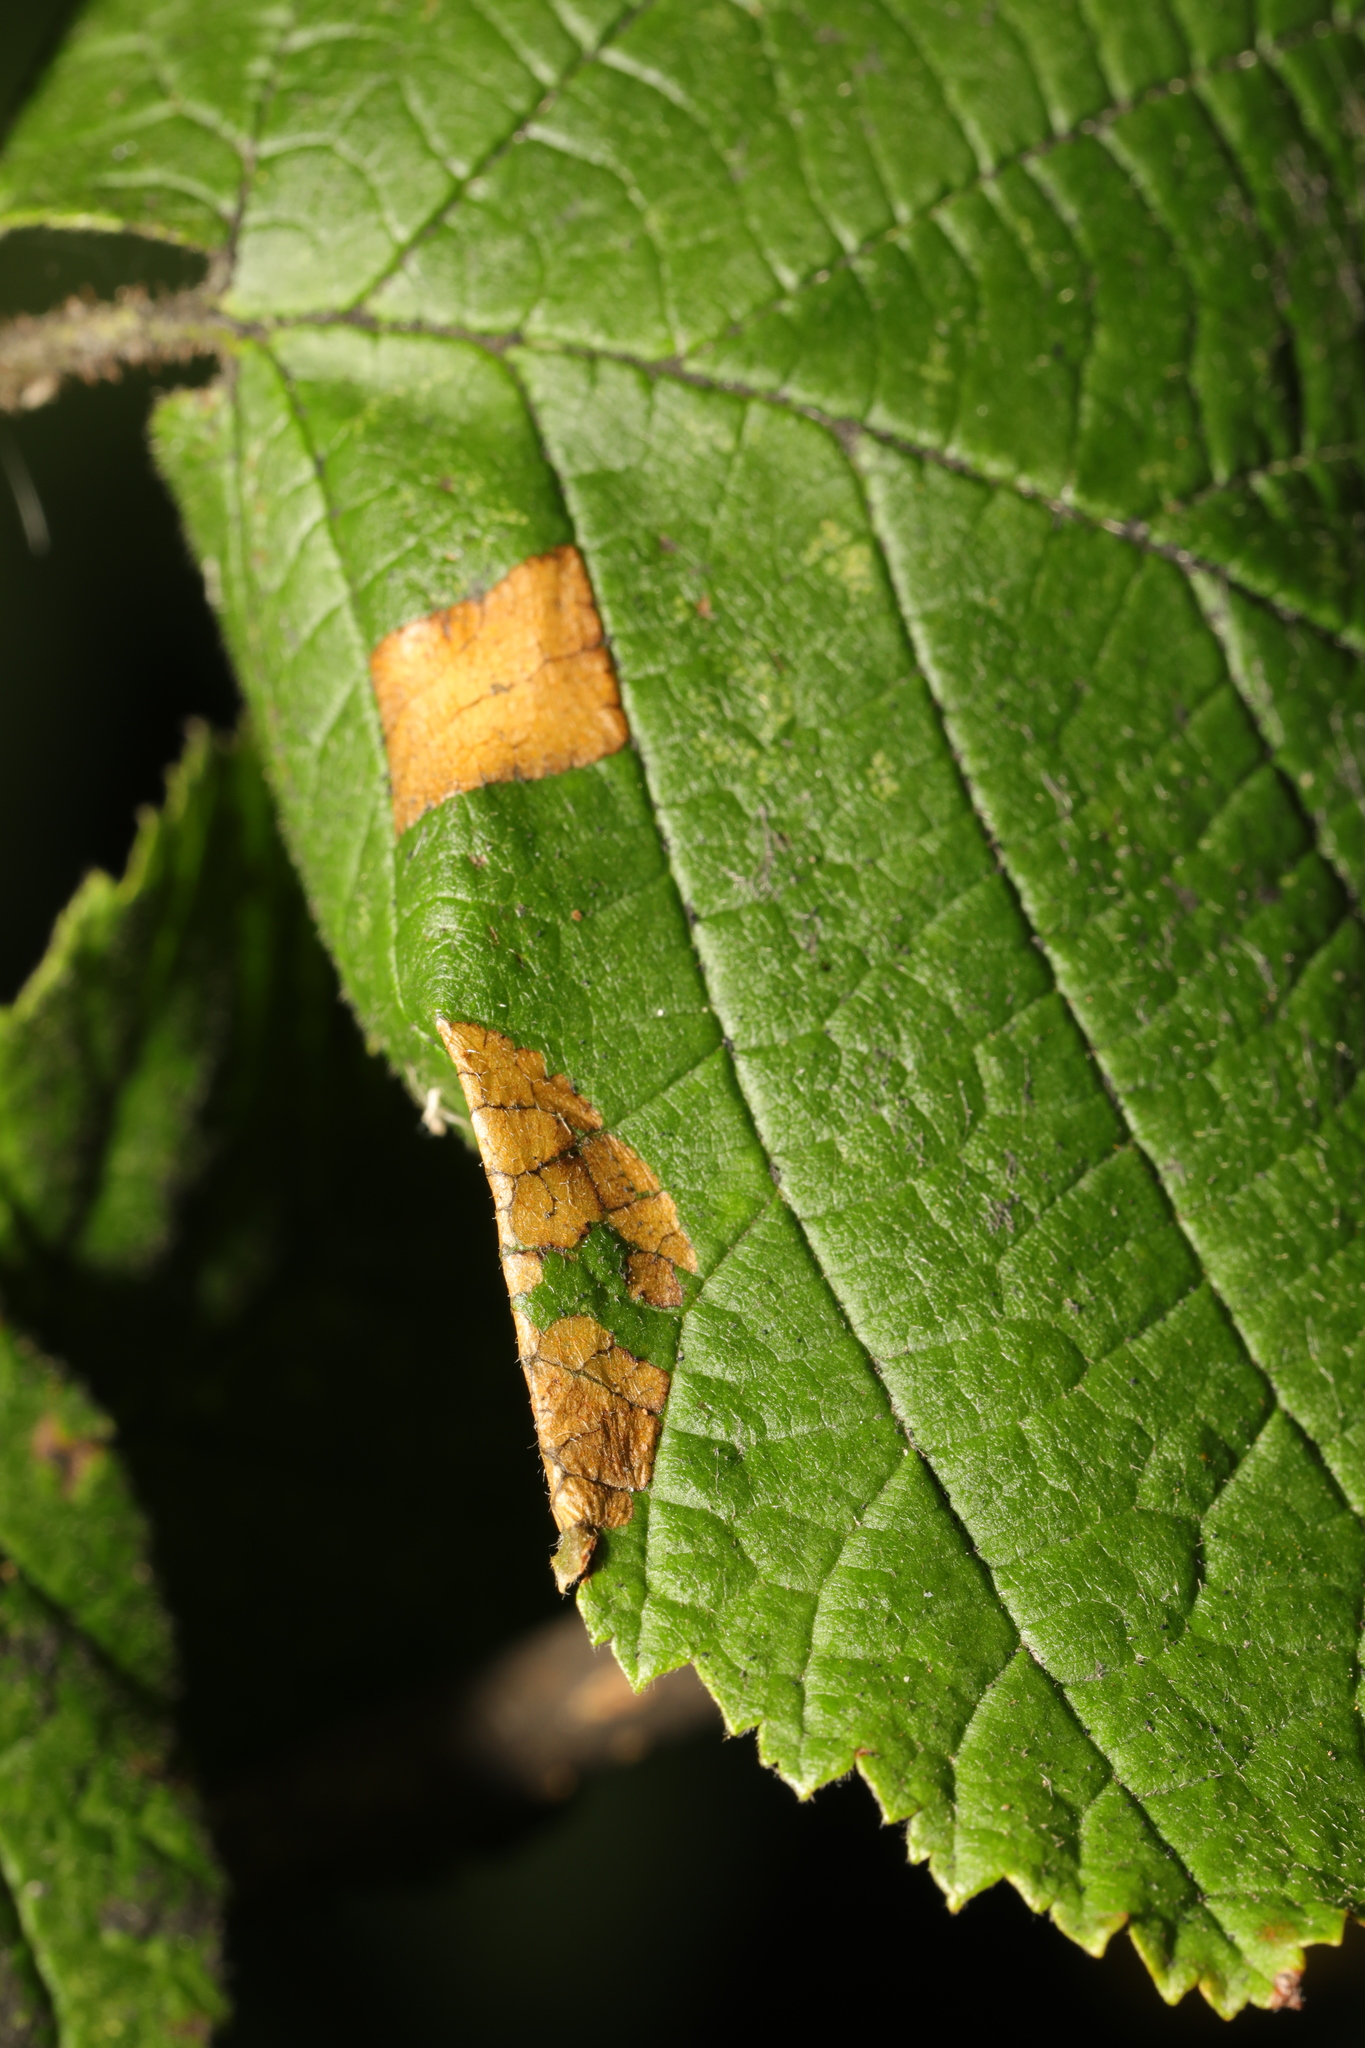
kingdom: Animalia
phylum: Arthropoda
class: Insecta
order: Lepidoptera
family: Gracillariidae
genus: Parornix
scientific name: Parornix devoniella
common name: Hazel slender
